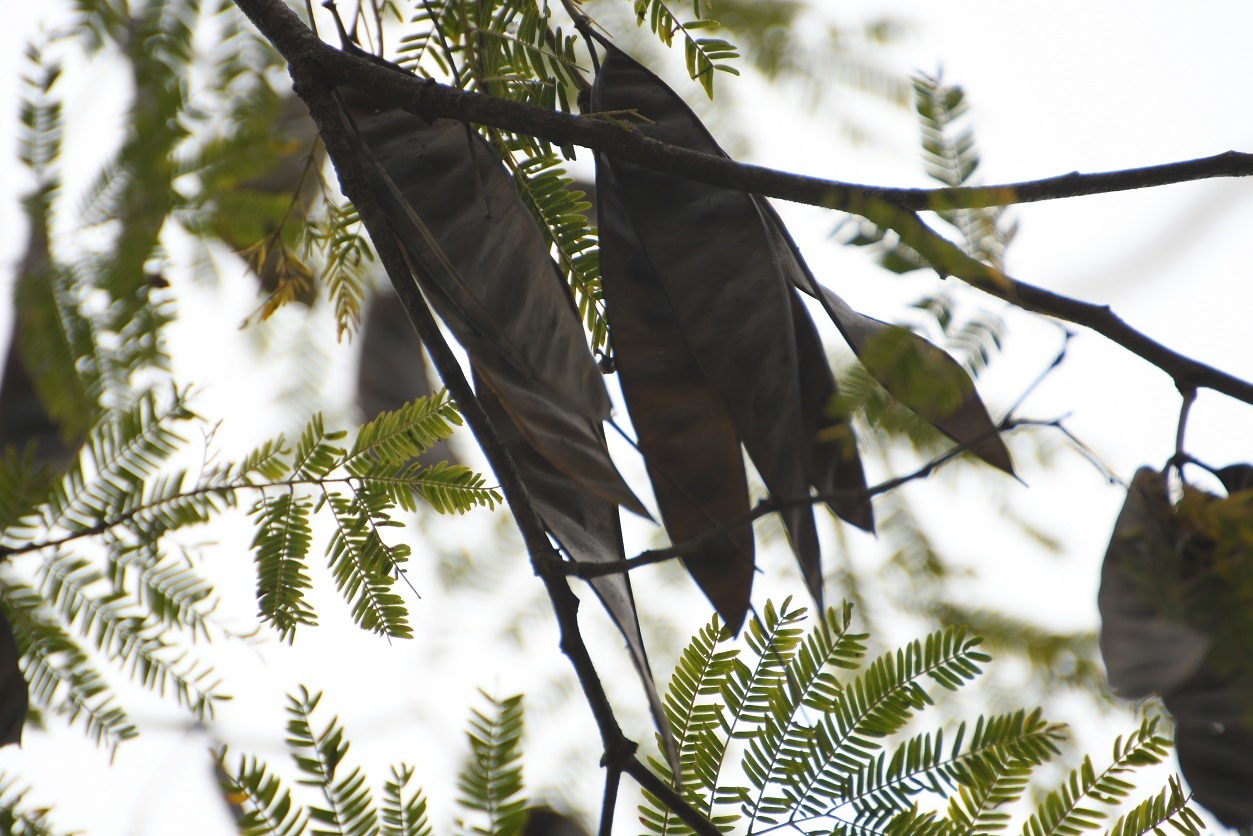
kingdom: Plantae
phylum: Tracheophyta
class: Magnoliopsida
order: Fabales
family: Fabaceae
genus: Lysiloma
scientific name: Lysiloma divaricatum
